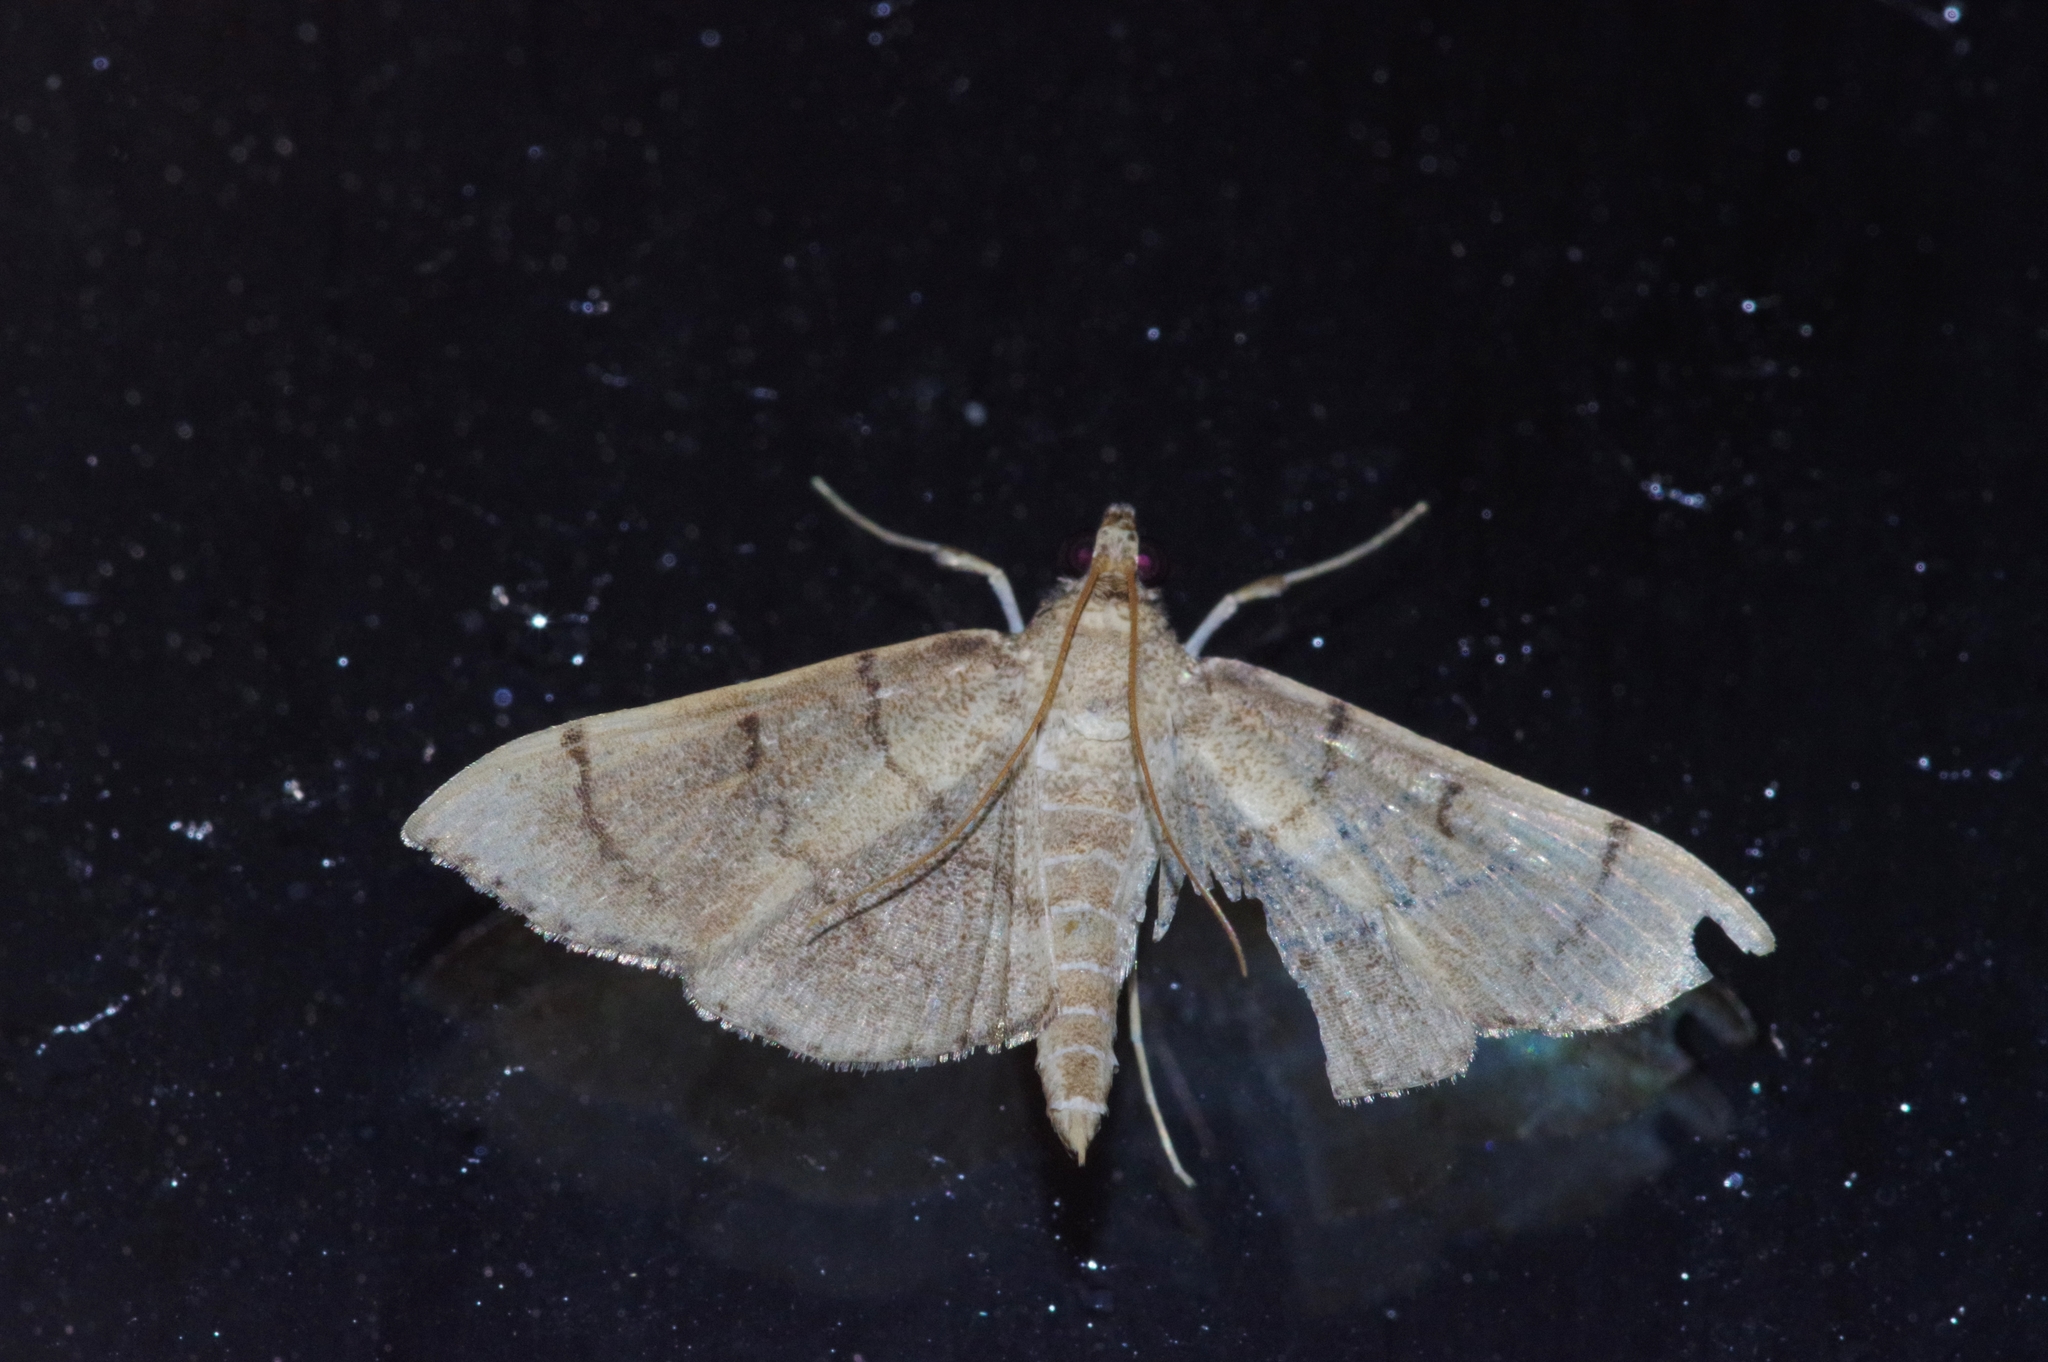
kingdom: Animalia
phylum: Arthropoda
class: Insecta
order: Lepidoptera
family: Crambidae
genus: Omiodes
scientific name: Omiodes decisalis
